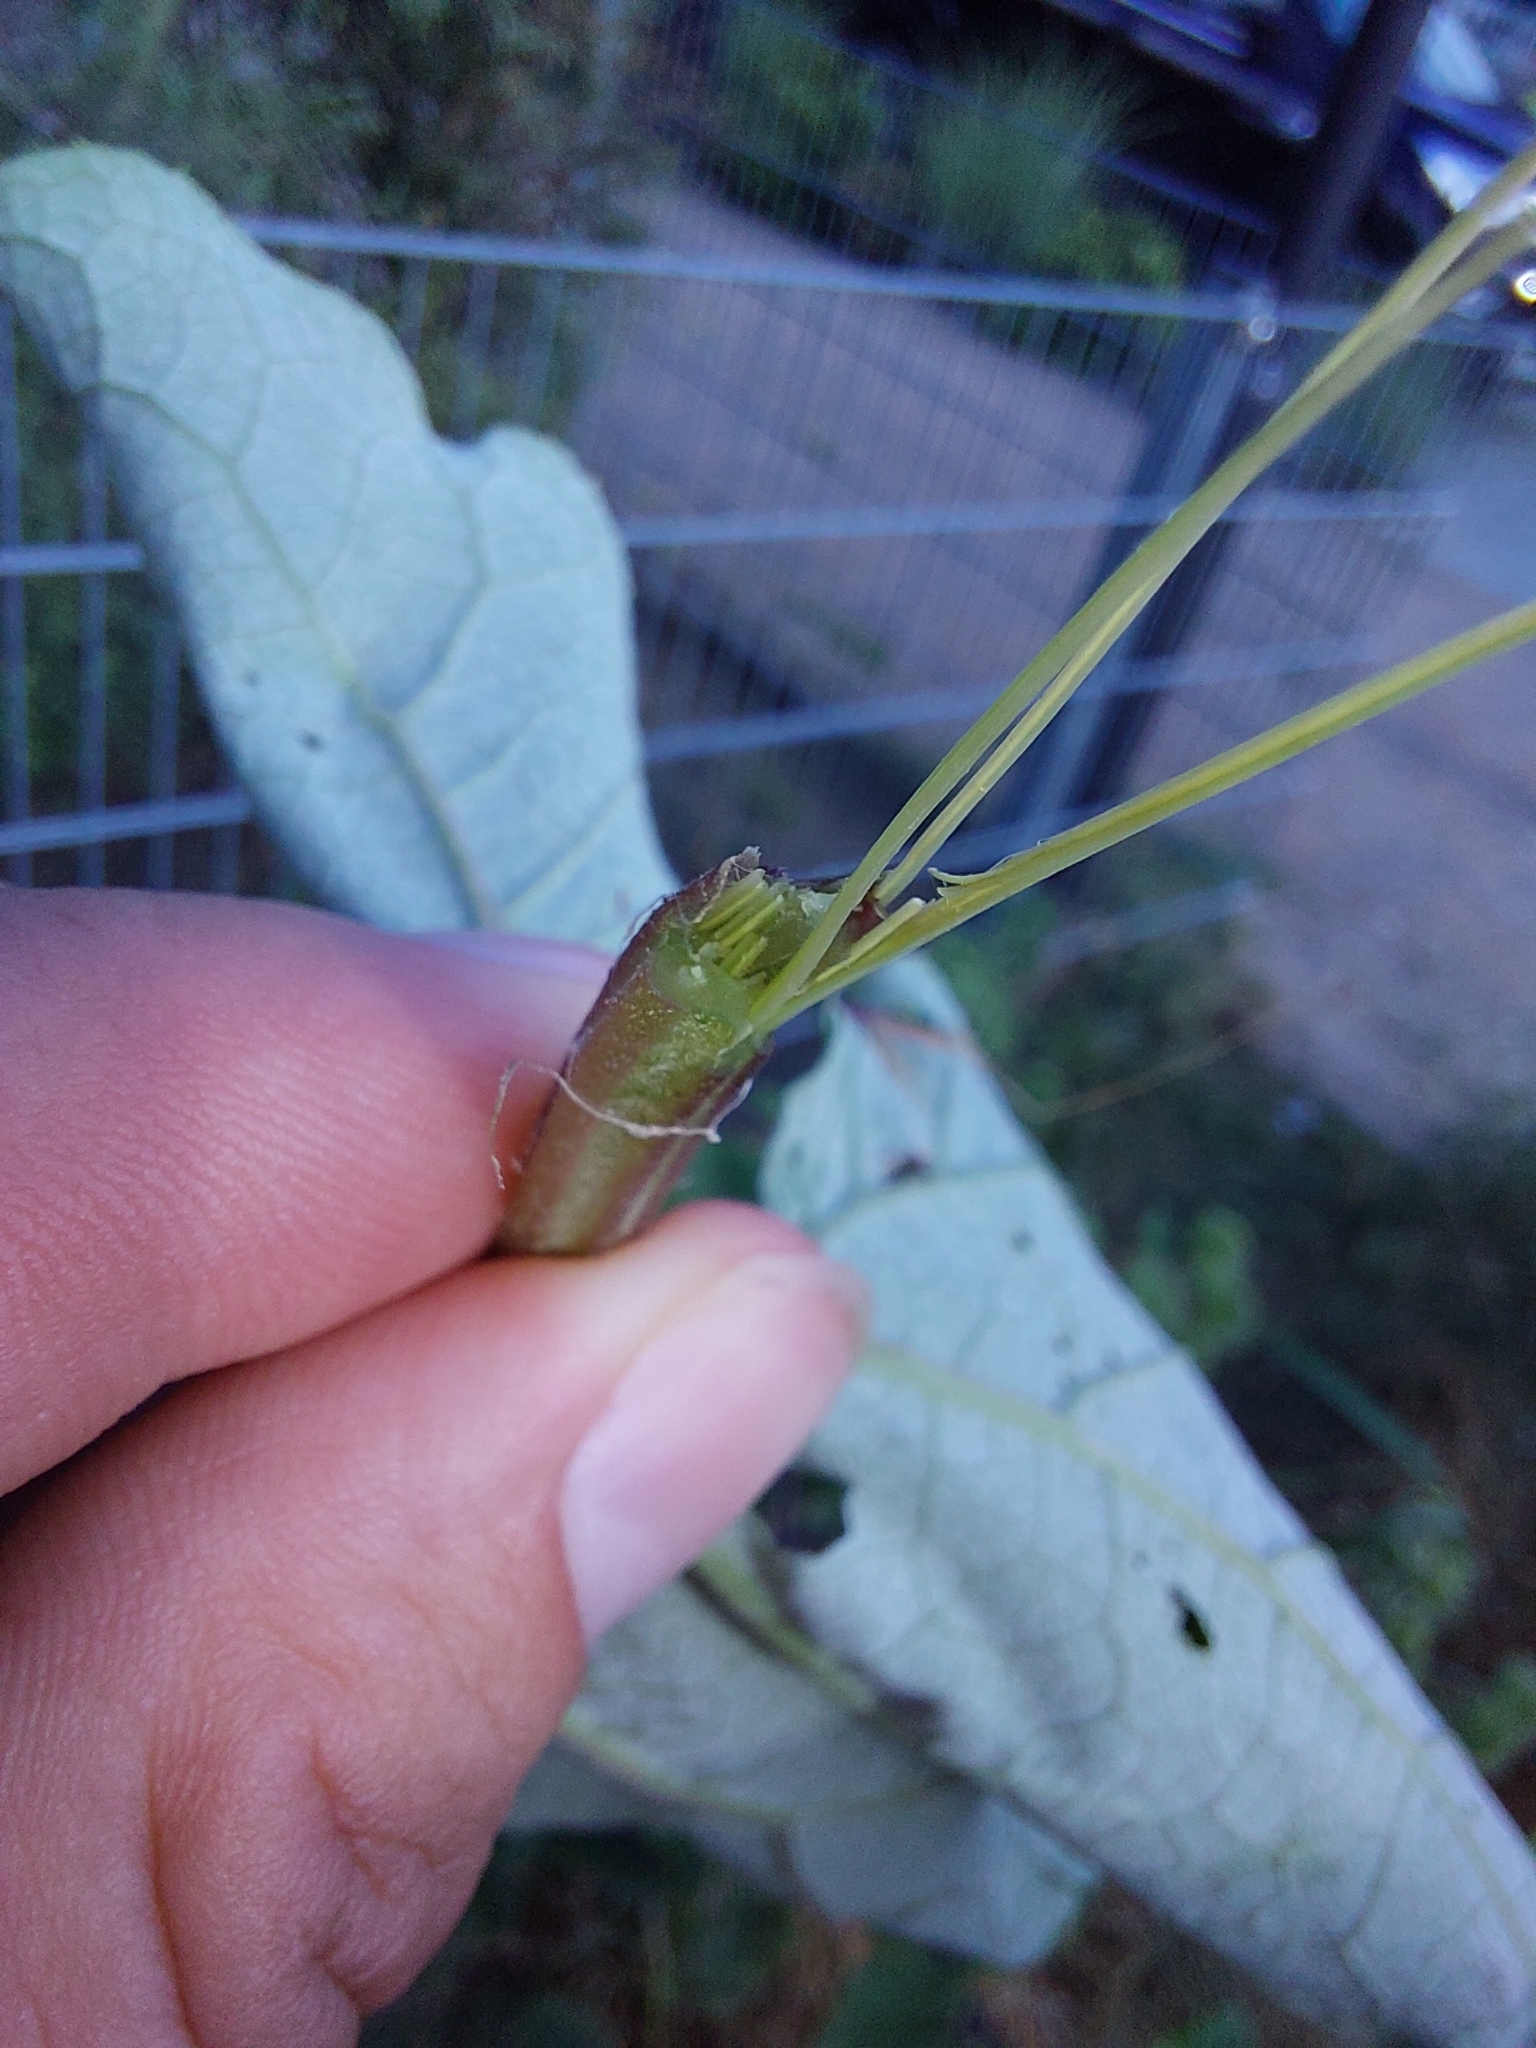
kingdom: Plantae
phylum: Tracheophyta
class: Magnoliopsida
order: Asterales
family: Asteraceae
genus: Arctium
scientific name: Arctium lappa
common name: Greater burdock
